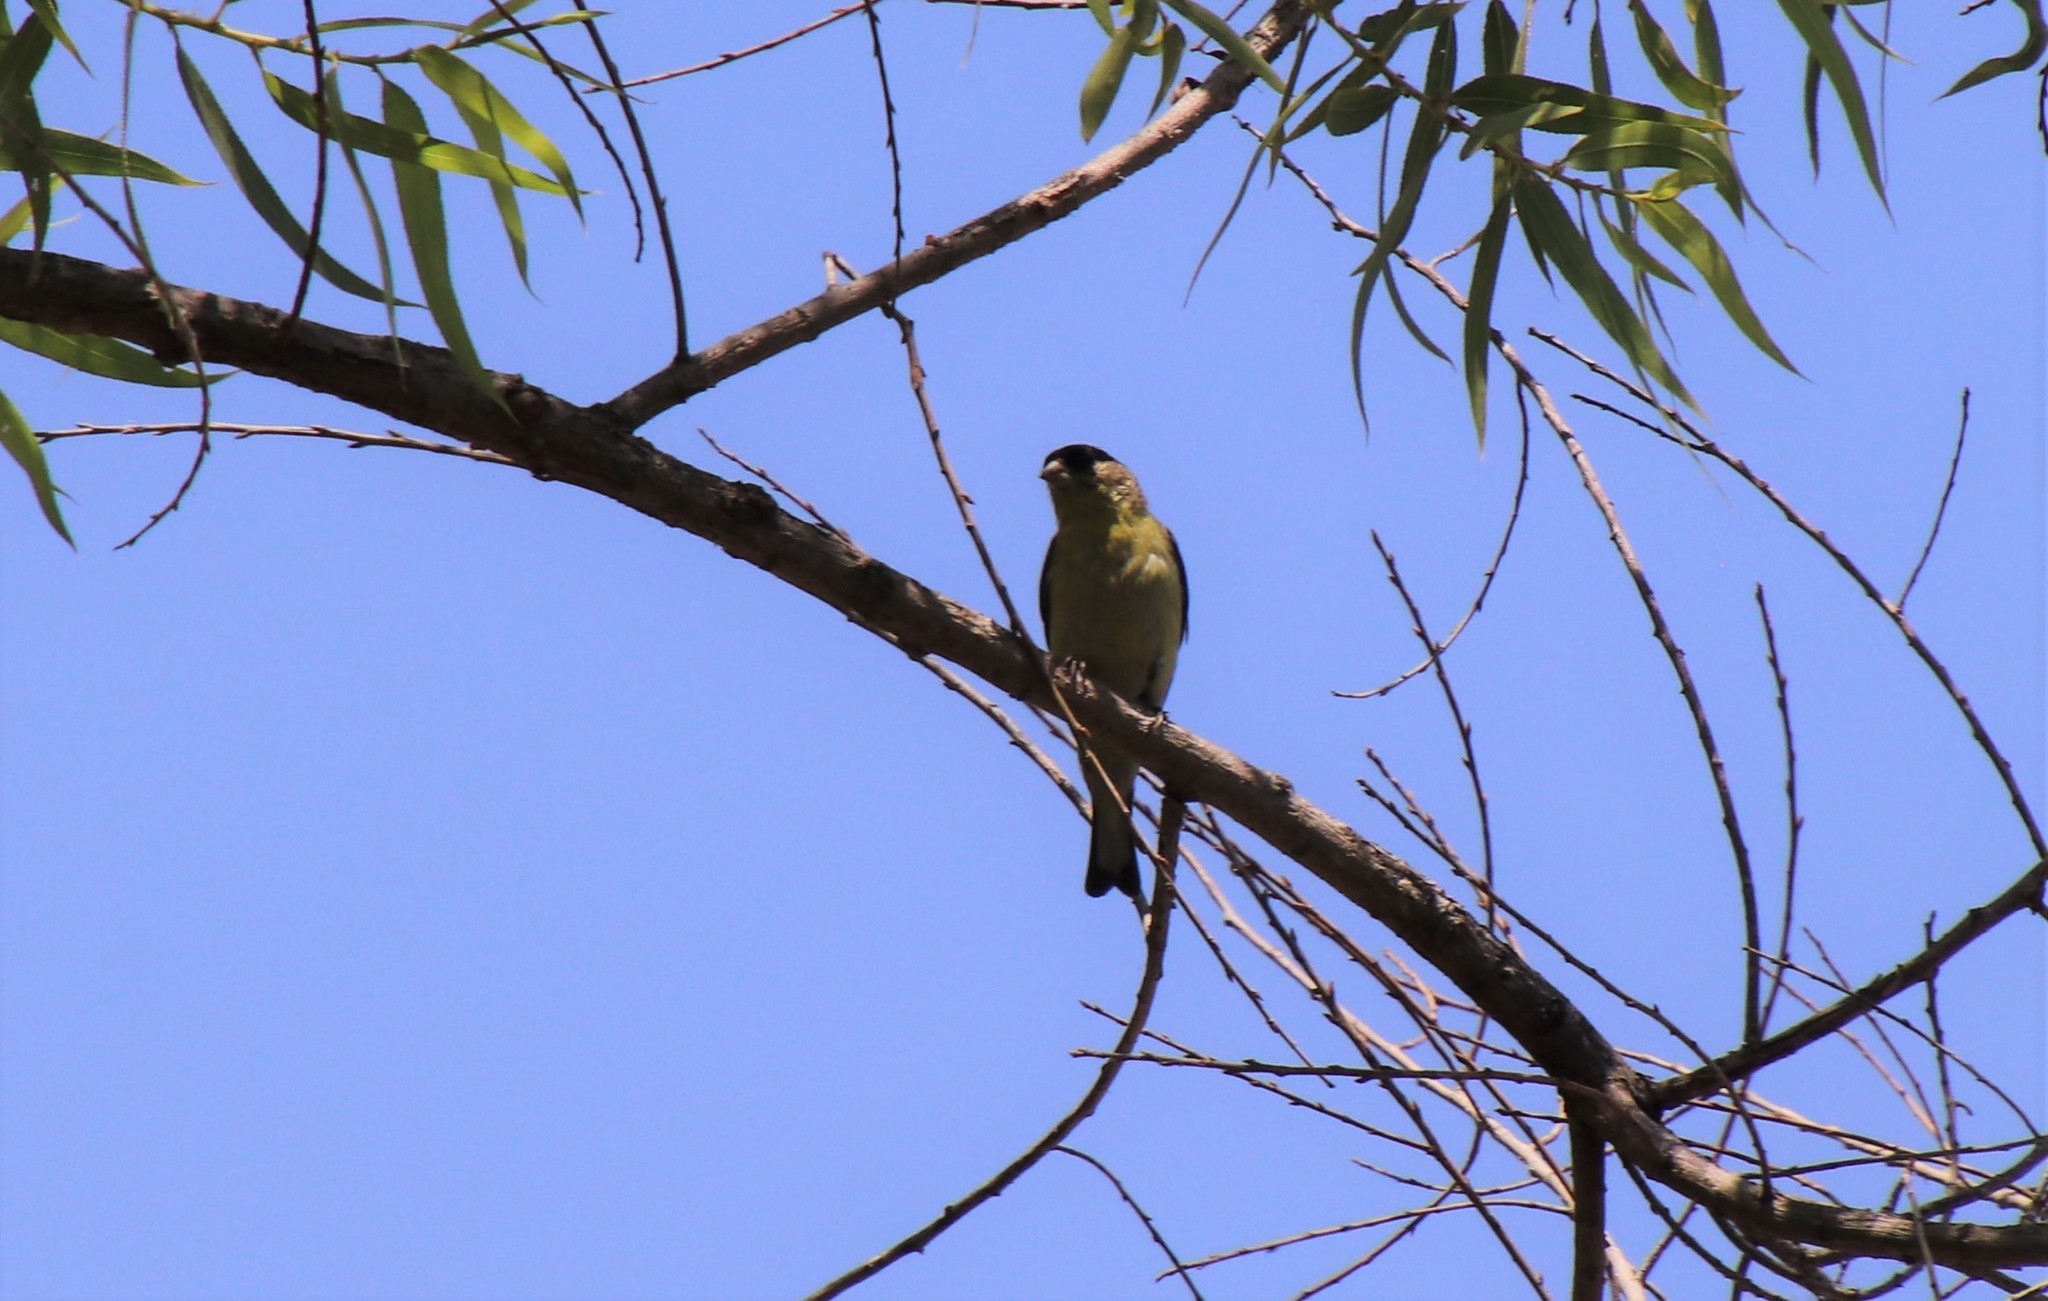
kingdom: Animalia
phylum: Chordata
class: Aves
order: Passeriformes
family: Fringillidae
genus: Spinus
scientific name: Spinus psaltria
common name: Lesser goldfinch
